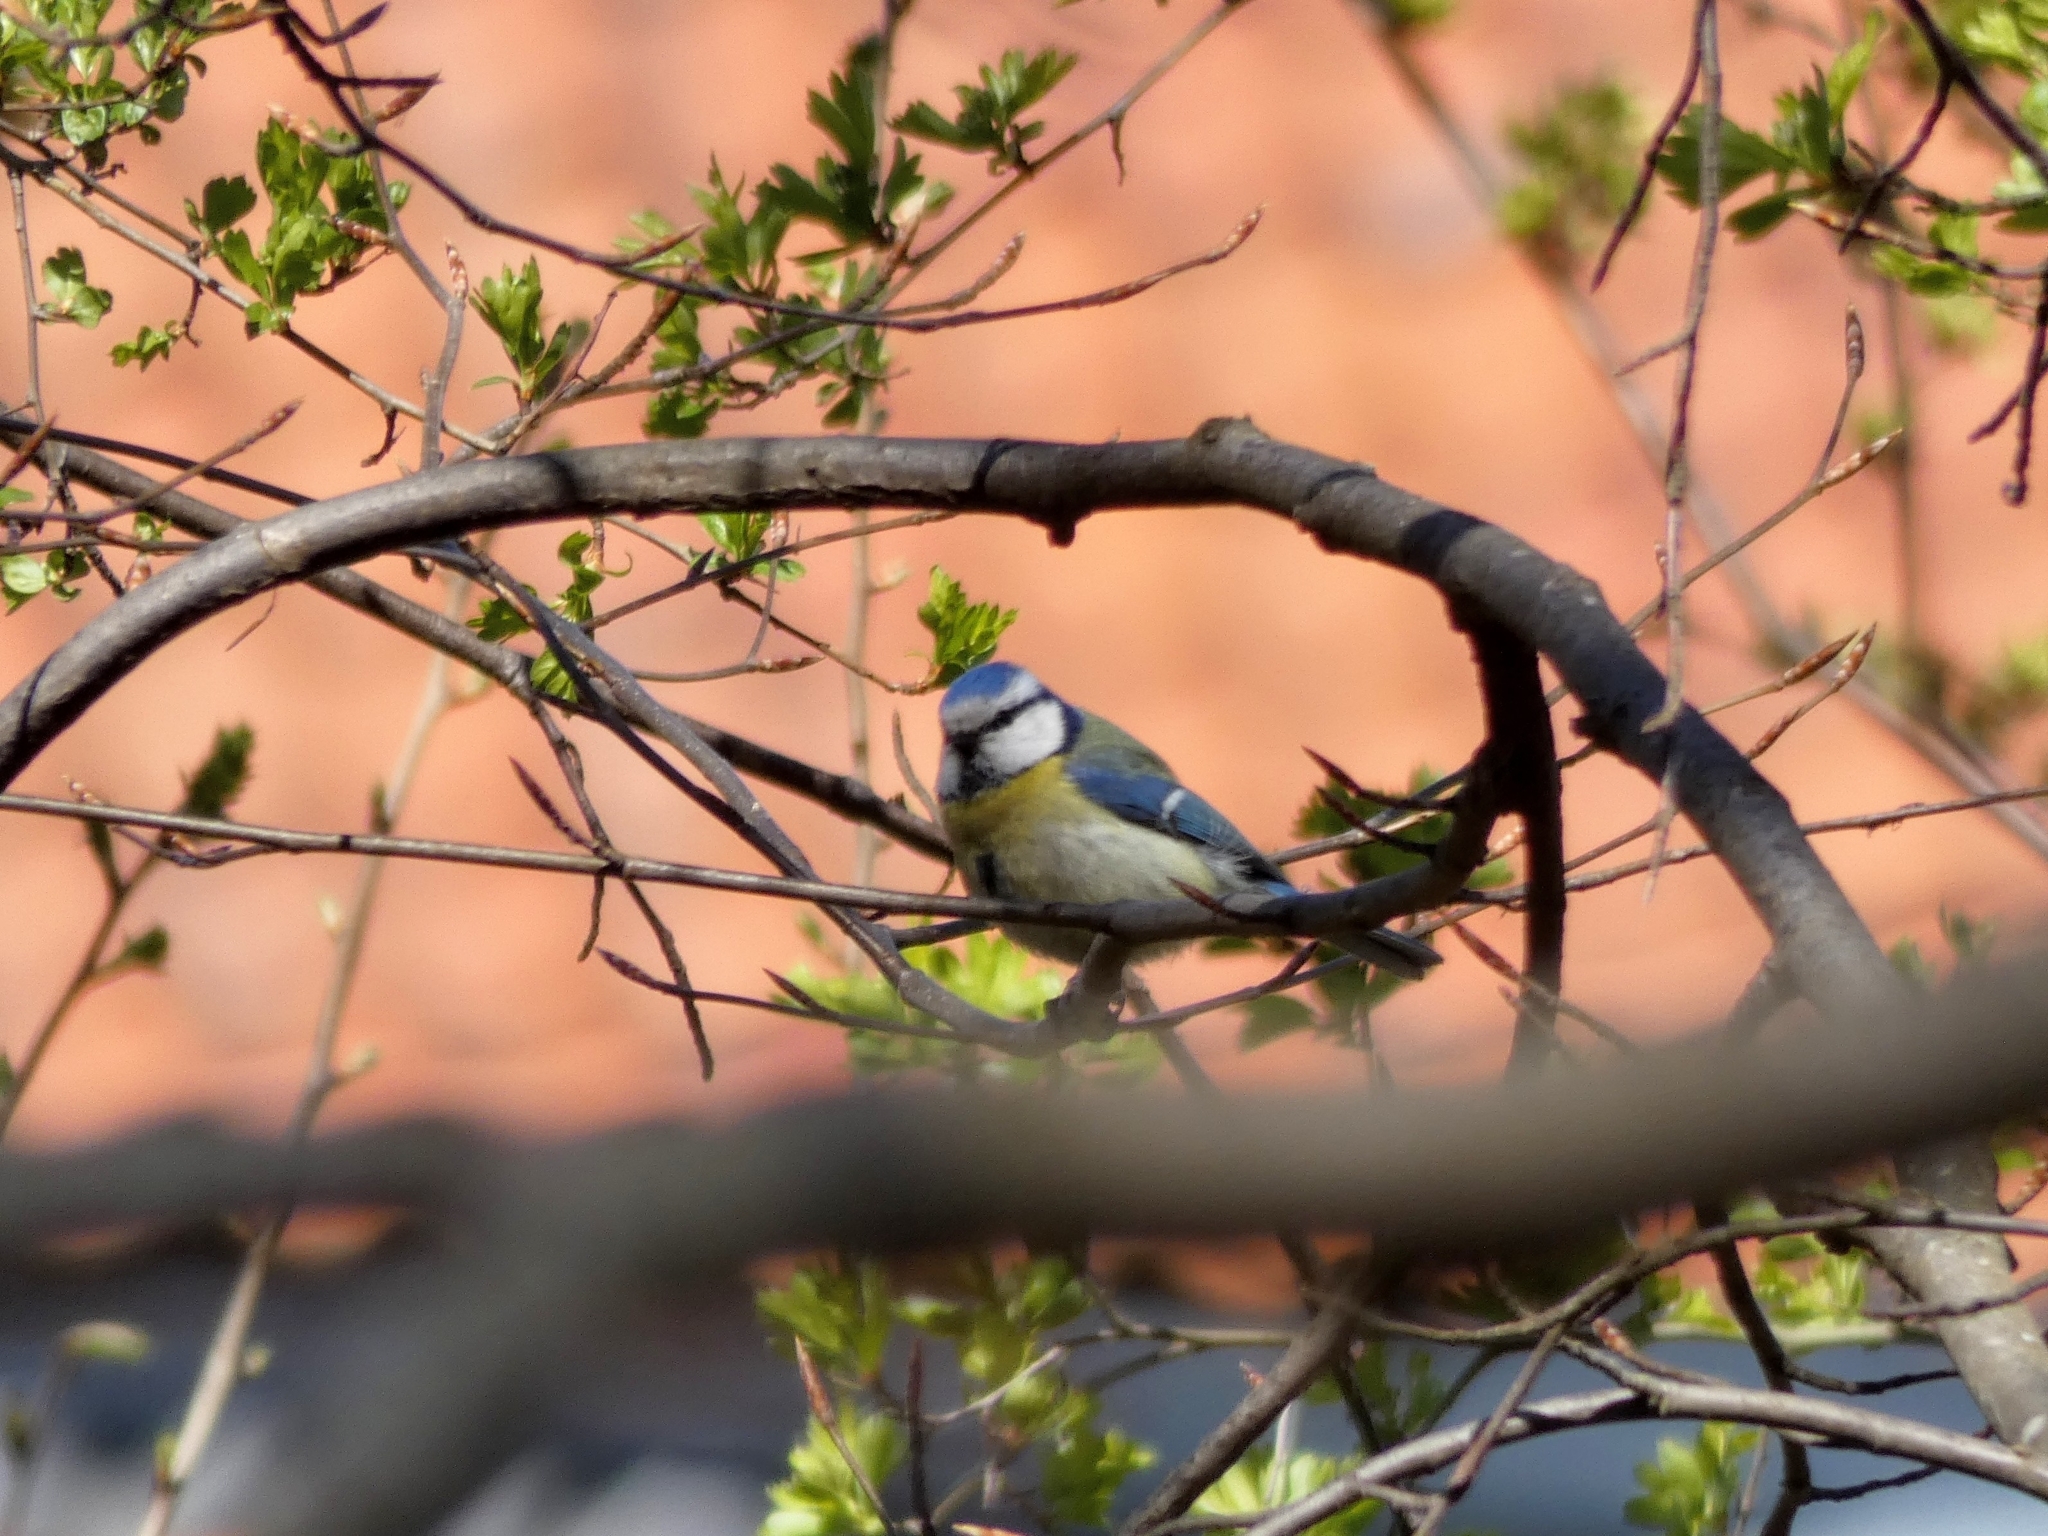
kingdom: Animalia
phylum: Chordata
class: Aves
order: Passeriformes
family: Paridae
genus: Cyanistes
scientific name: Cyanistes caeruleus
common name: Eurasian blue tit
